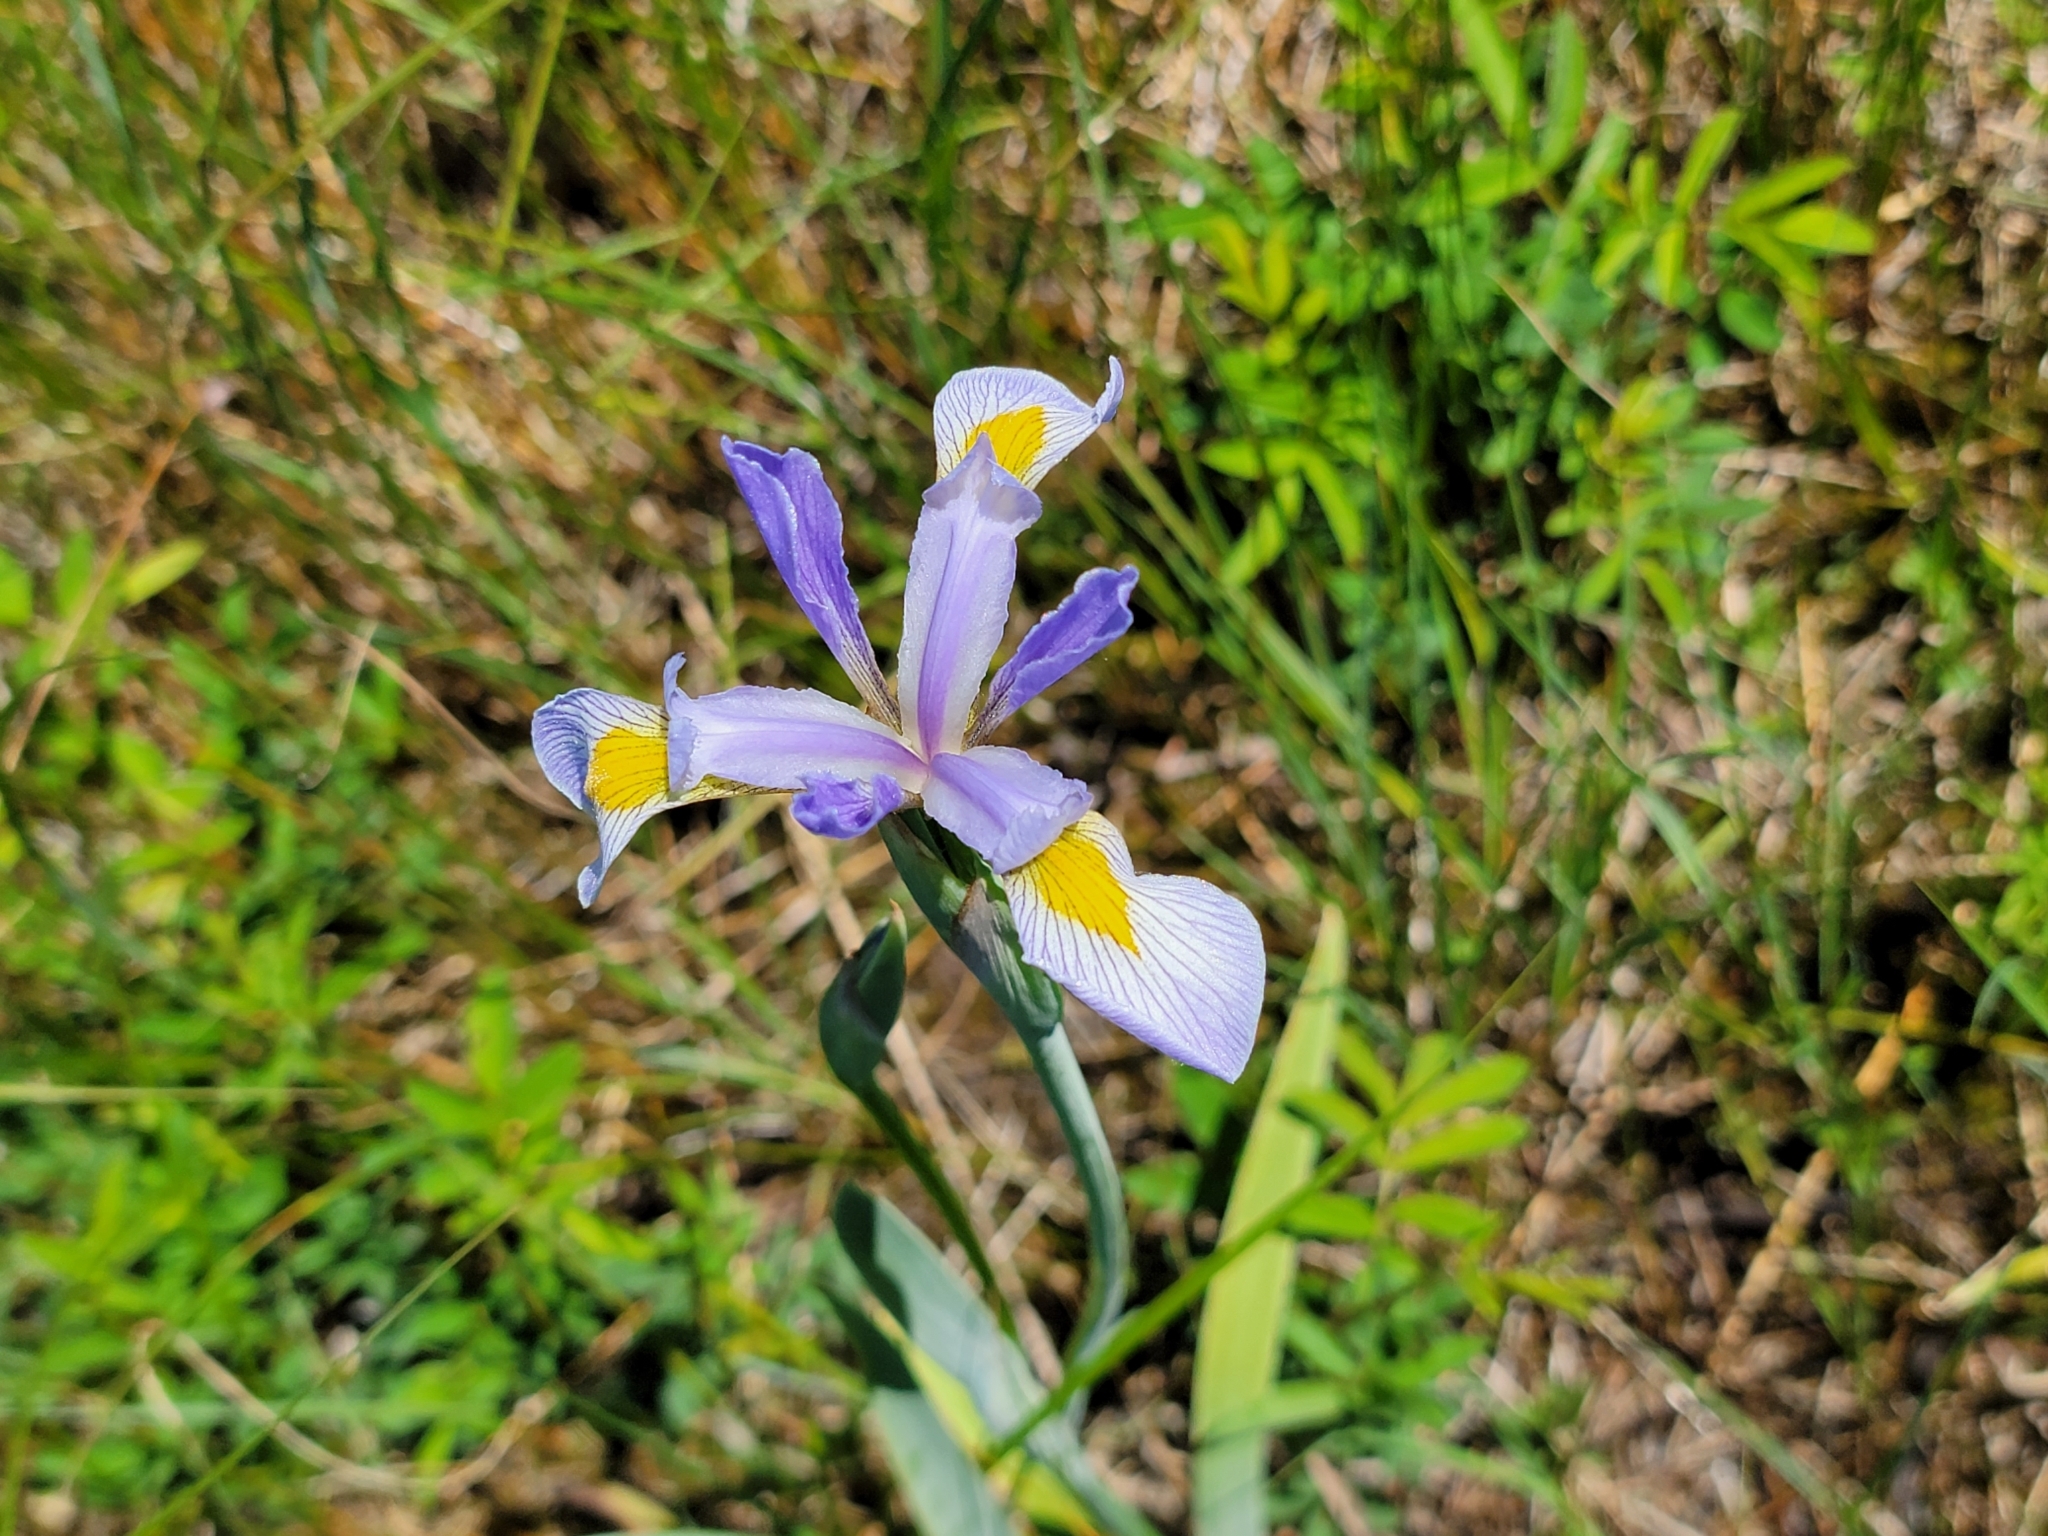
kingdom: Plantae
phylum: Tracheophyta
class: Liliopsida
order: Asparagales
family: Iridaceae
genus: Iris
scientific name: Iris virginica
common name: Southern blue flag
